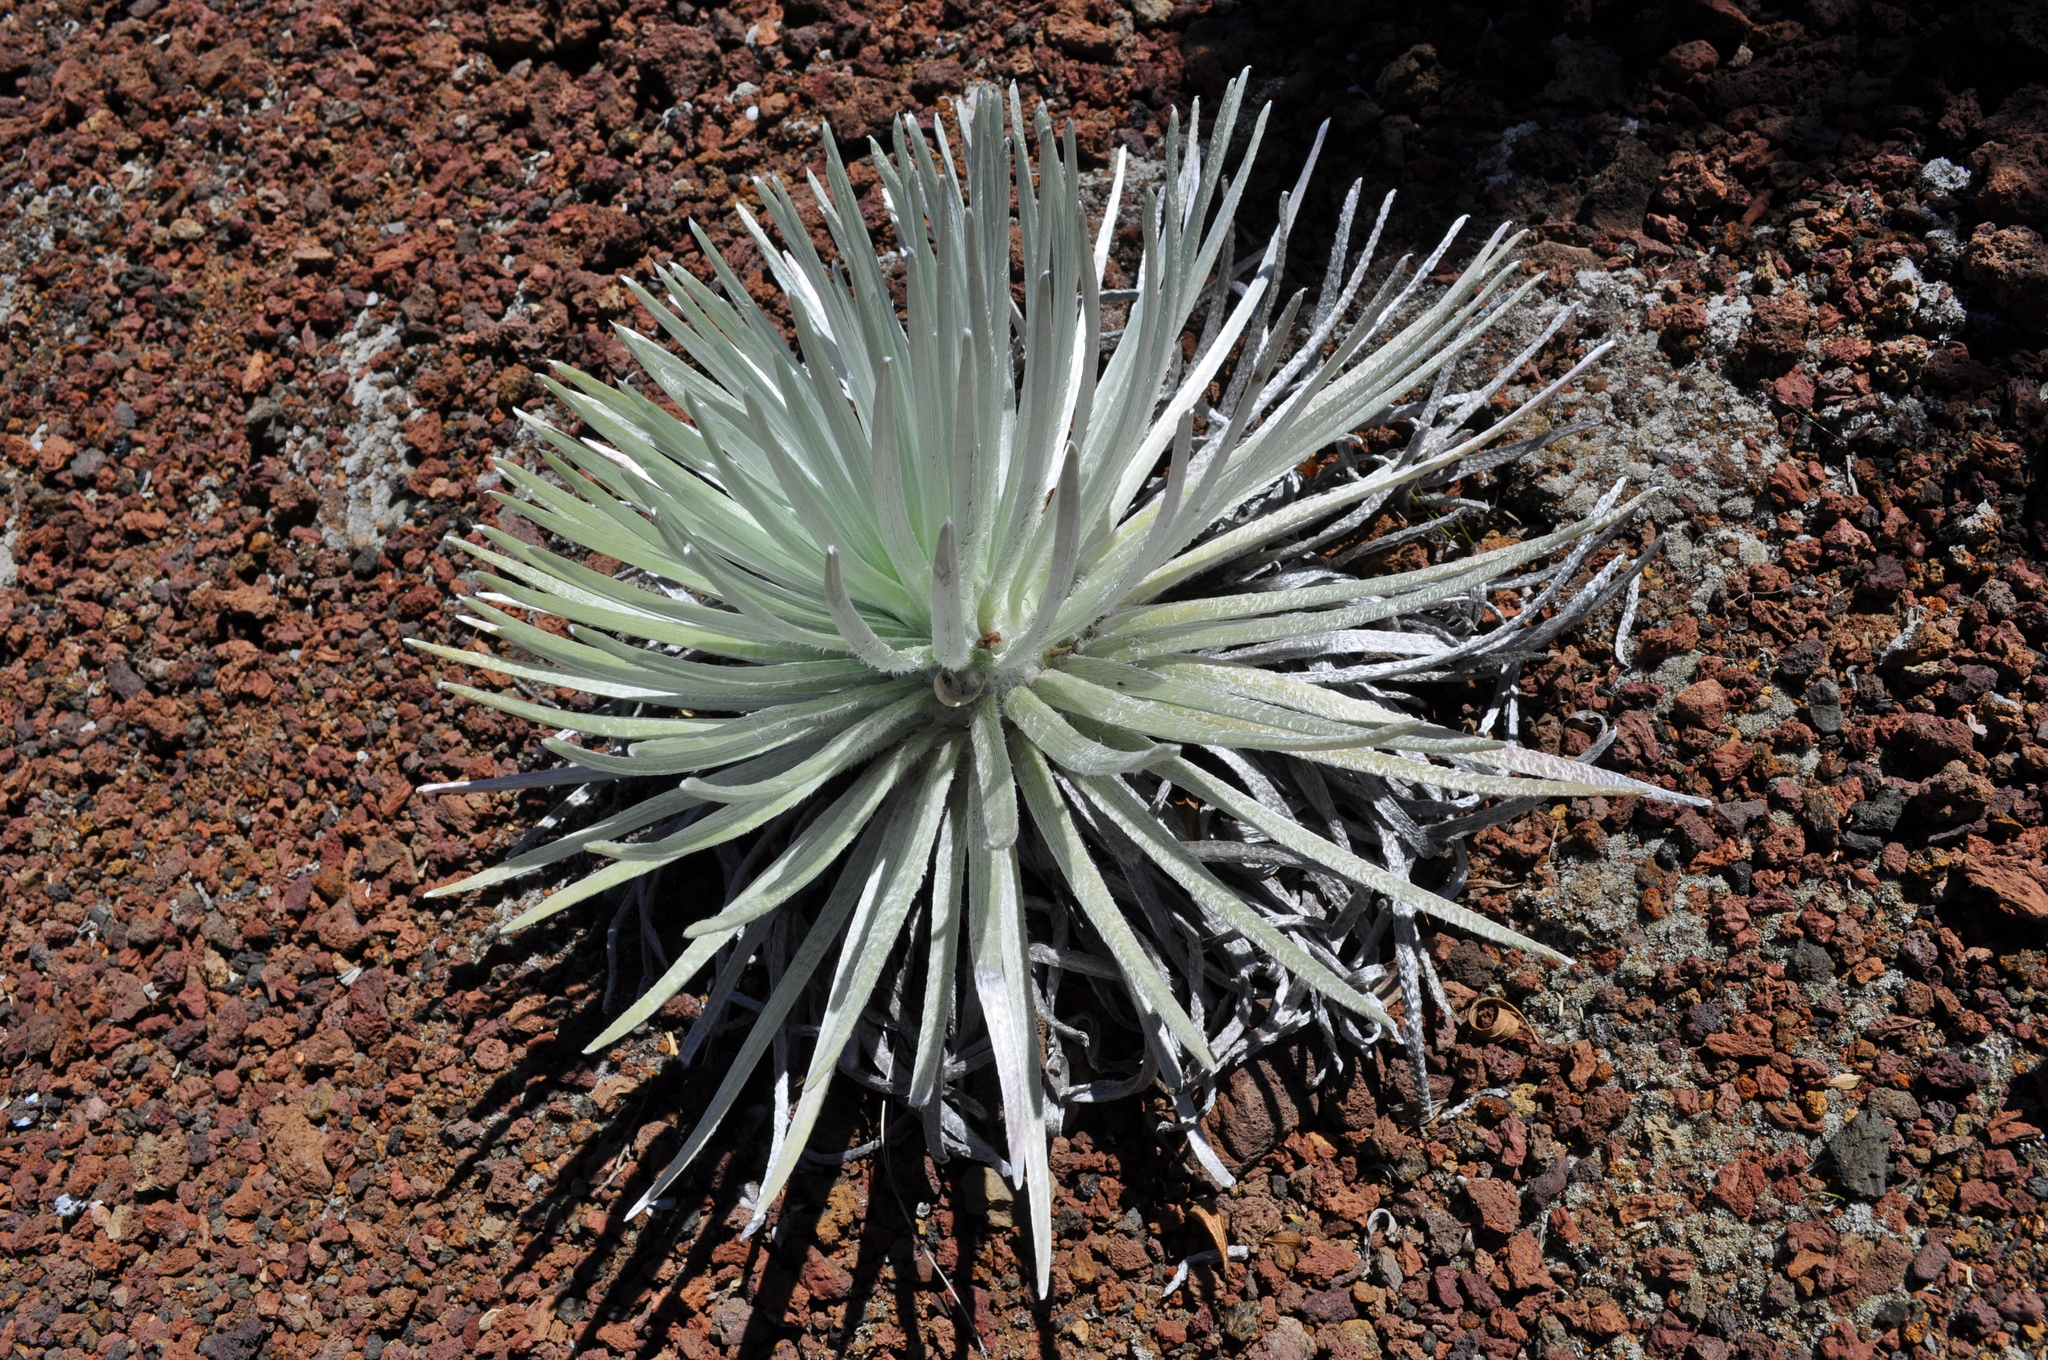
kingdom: Plantae
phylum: Tracheophyta
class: Magnoliopsida
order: Asterales
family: Asteraceae
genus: Argyroxiphium
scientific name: Argyroxiphium sandwicense
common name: Silversword
